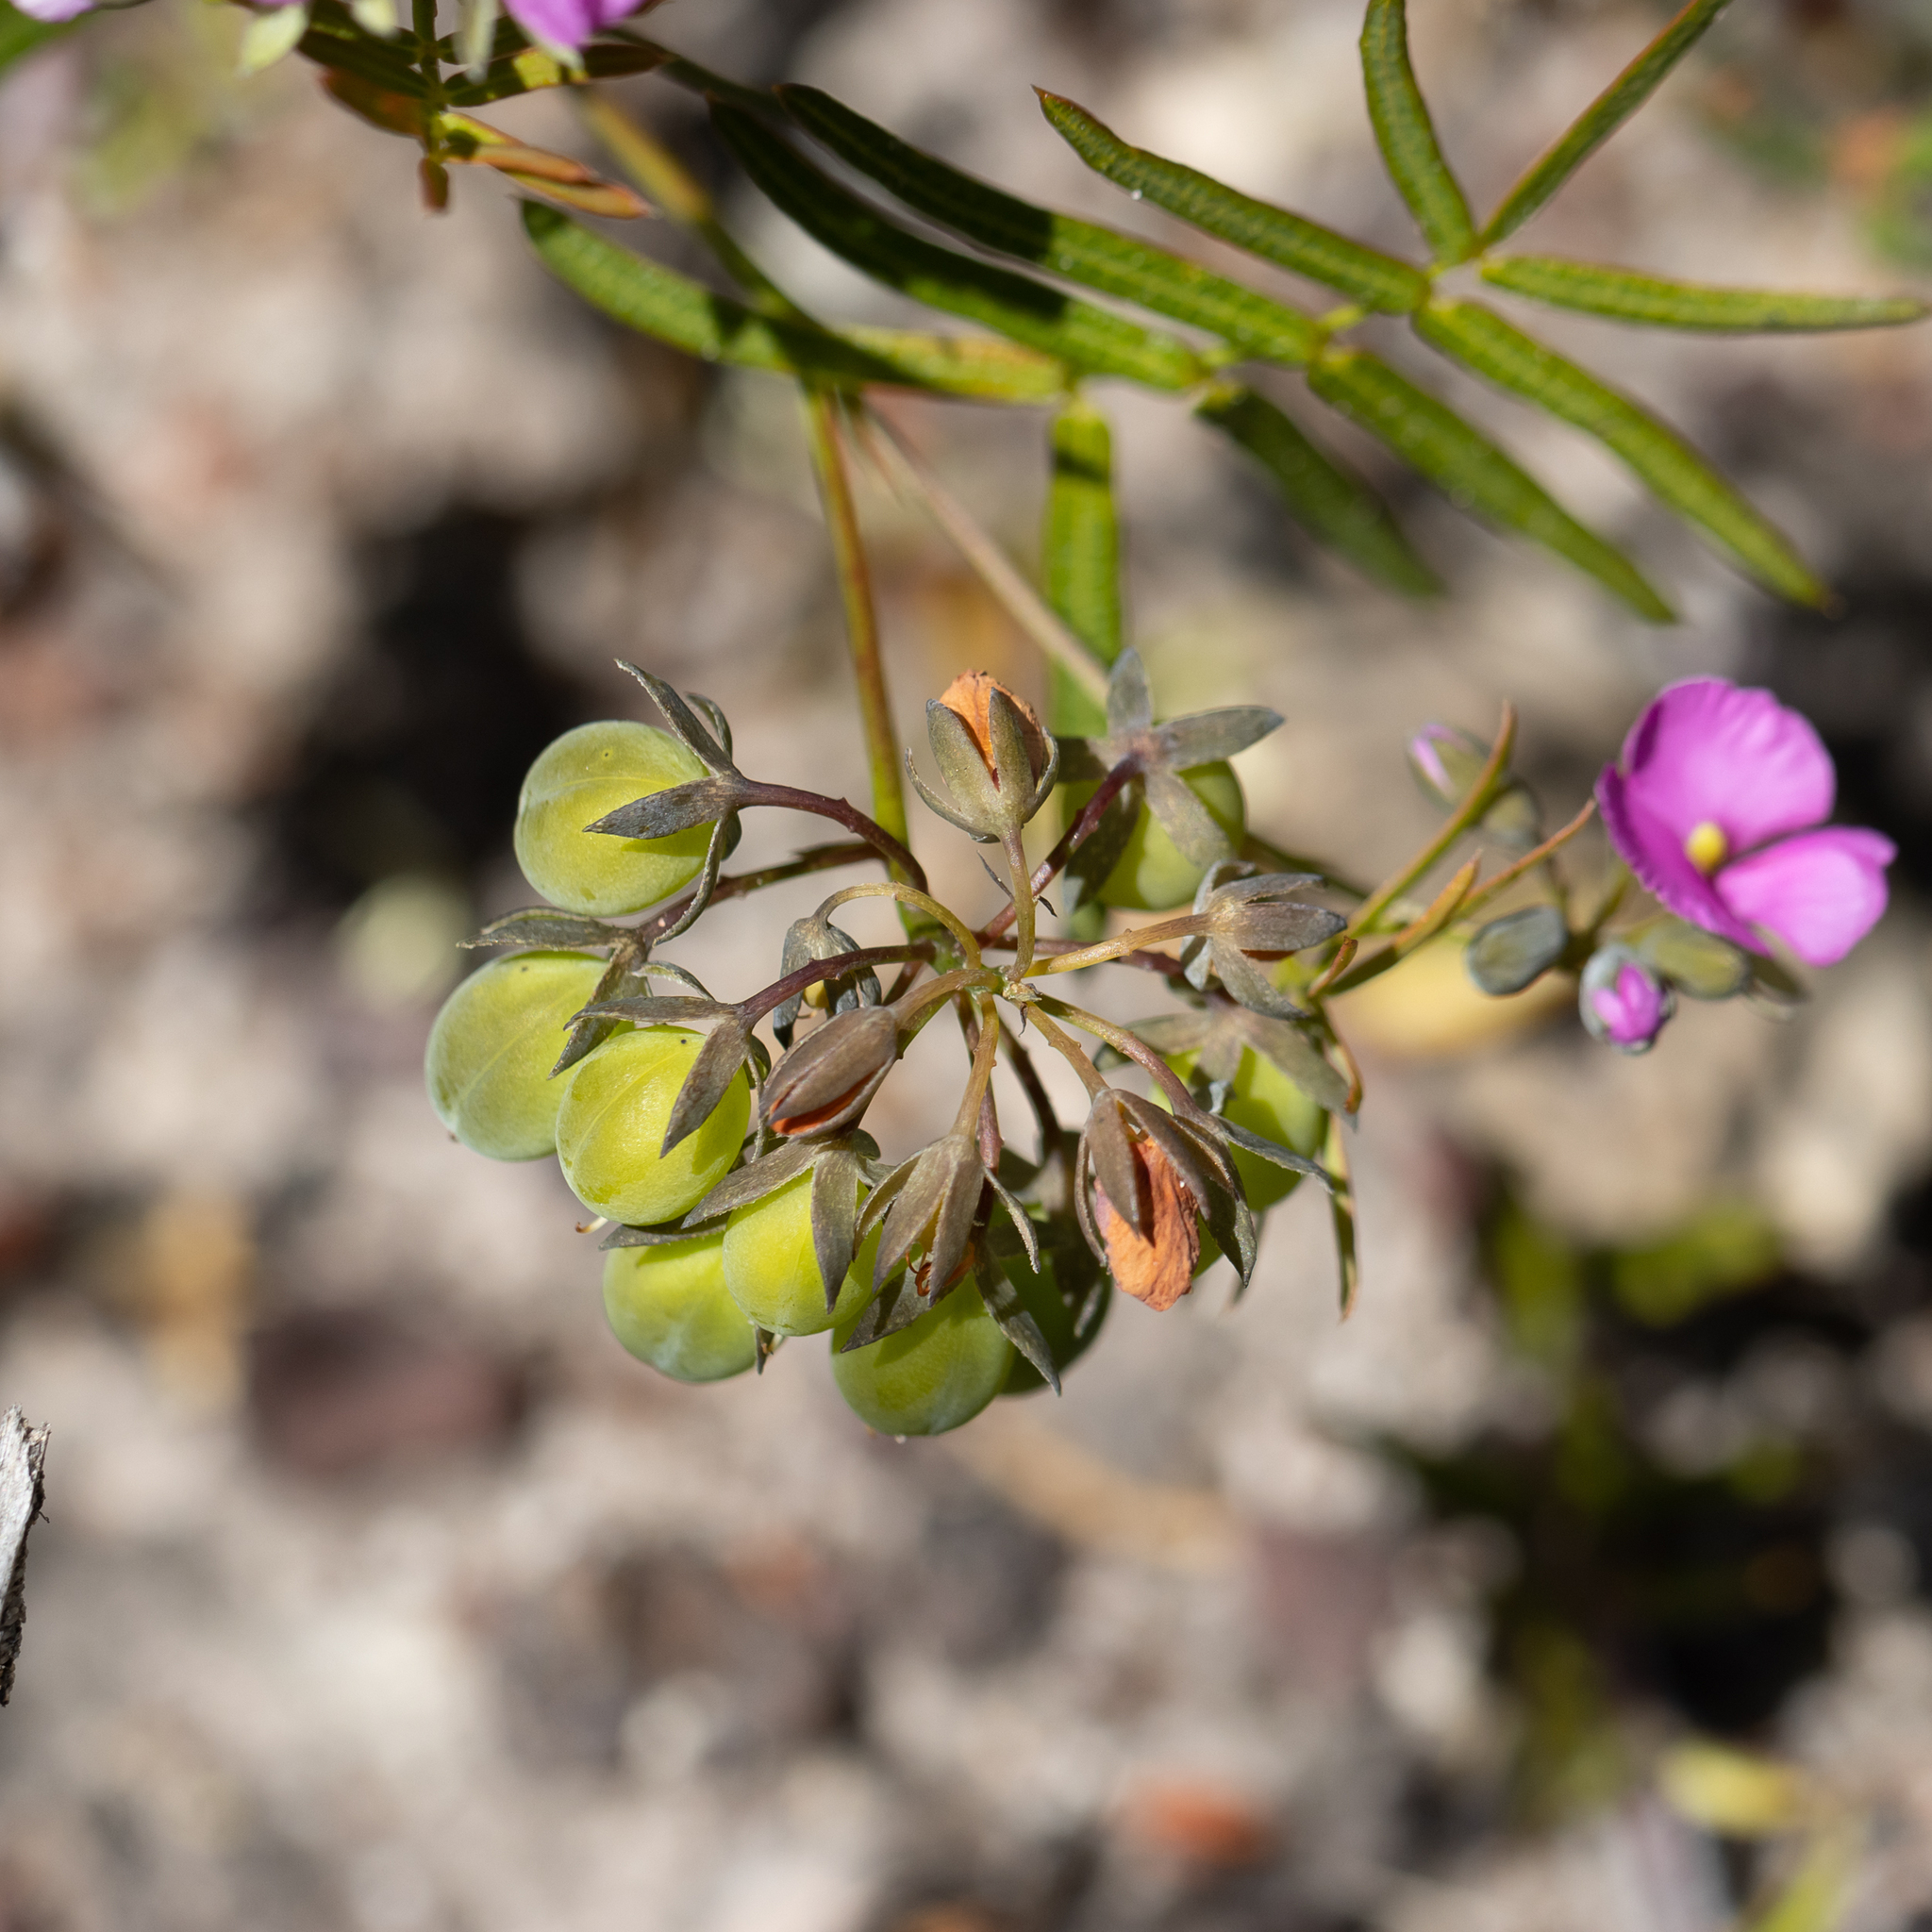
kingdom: Plantae
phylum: Tracheophyta
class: Magnoliopsida
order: Fabales
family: Fabaceae
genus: Gompholobium
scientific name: Gompholobium knightianum
